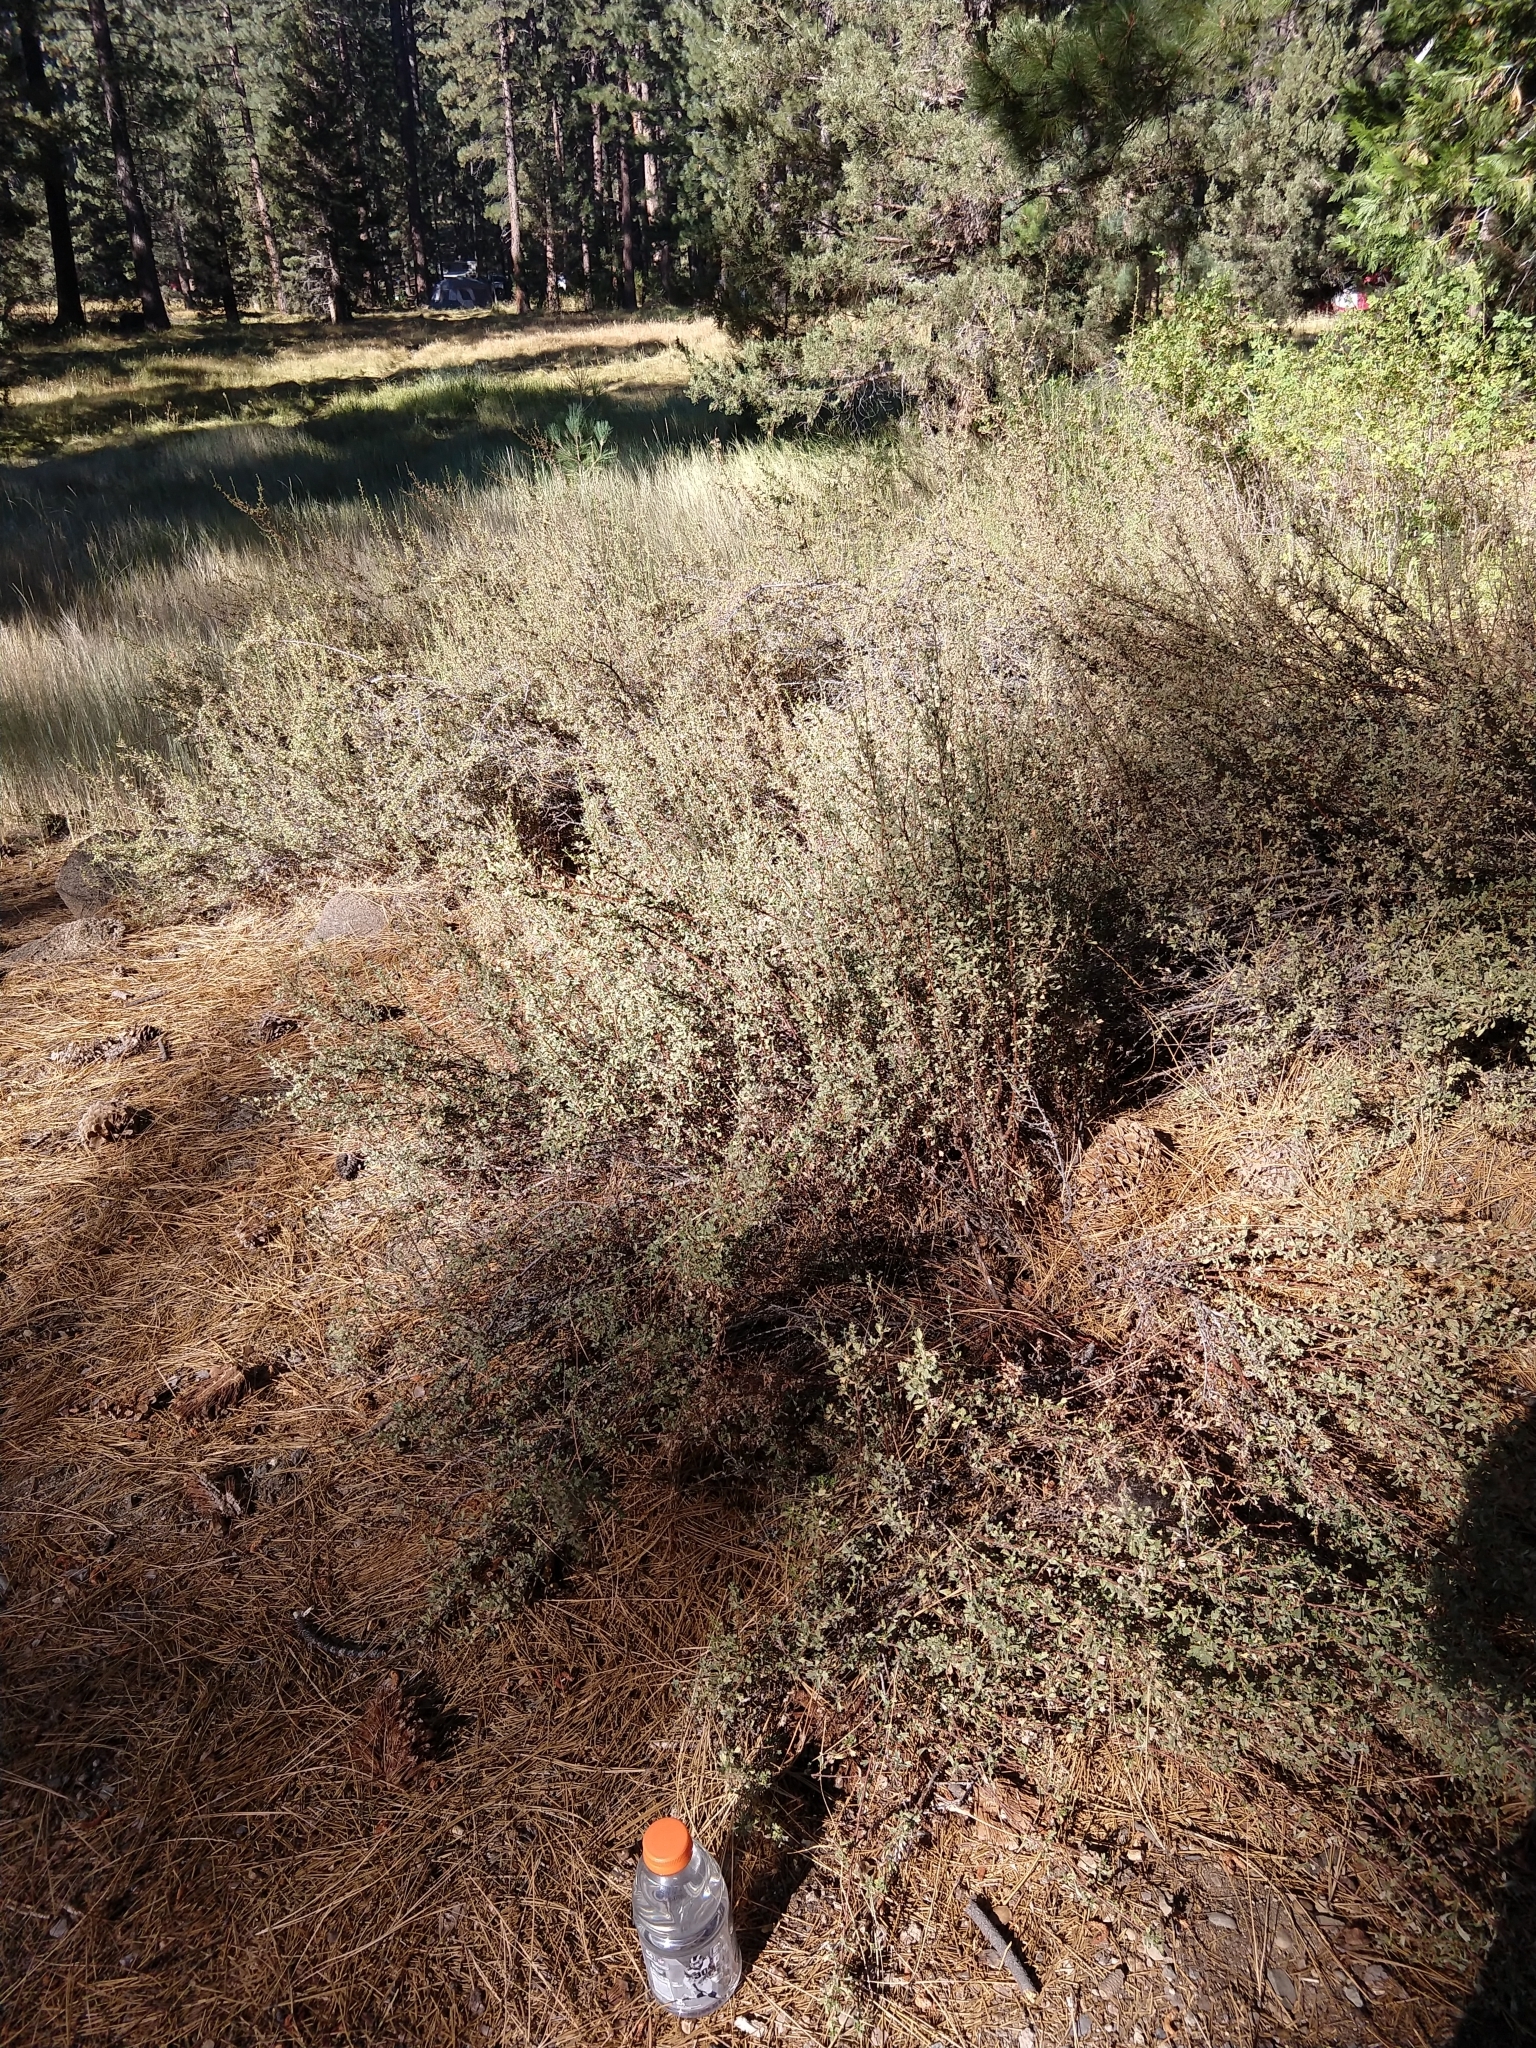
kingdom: Plantae
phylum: Tracheophyta
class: Magnoliopsida
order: Rosales
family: Rosaceae
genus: Purshia
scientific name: Purshia tridentata
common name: Antelope bitterbrush
